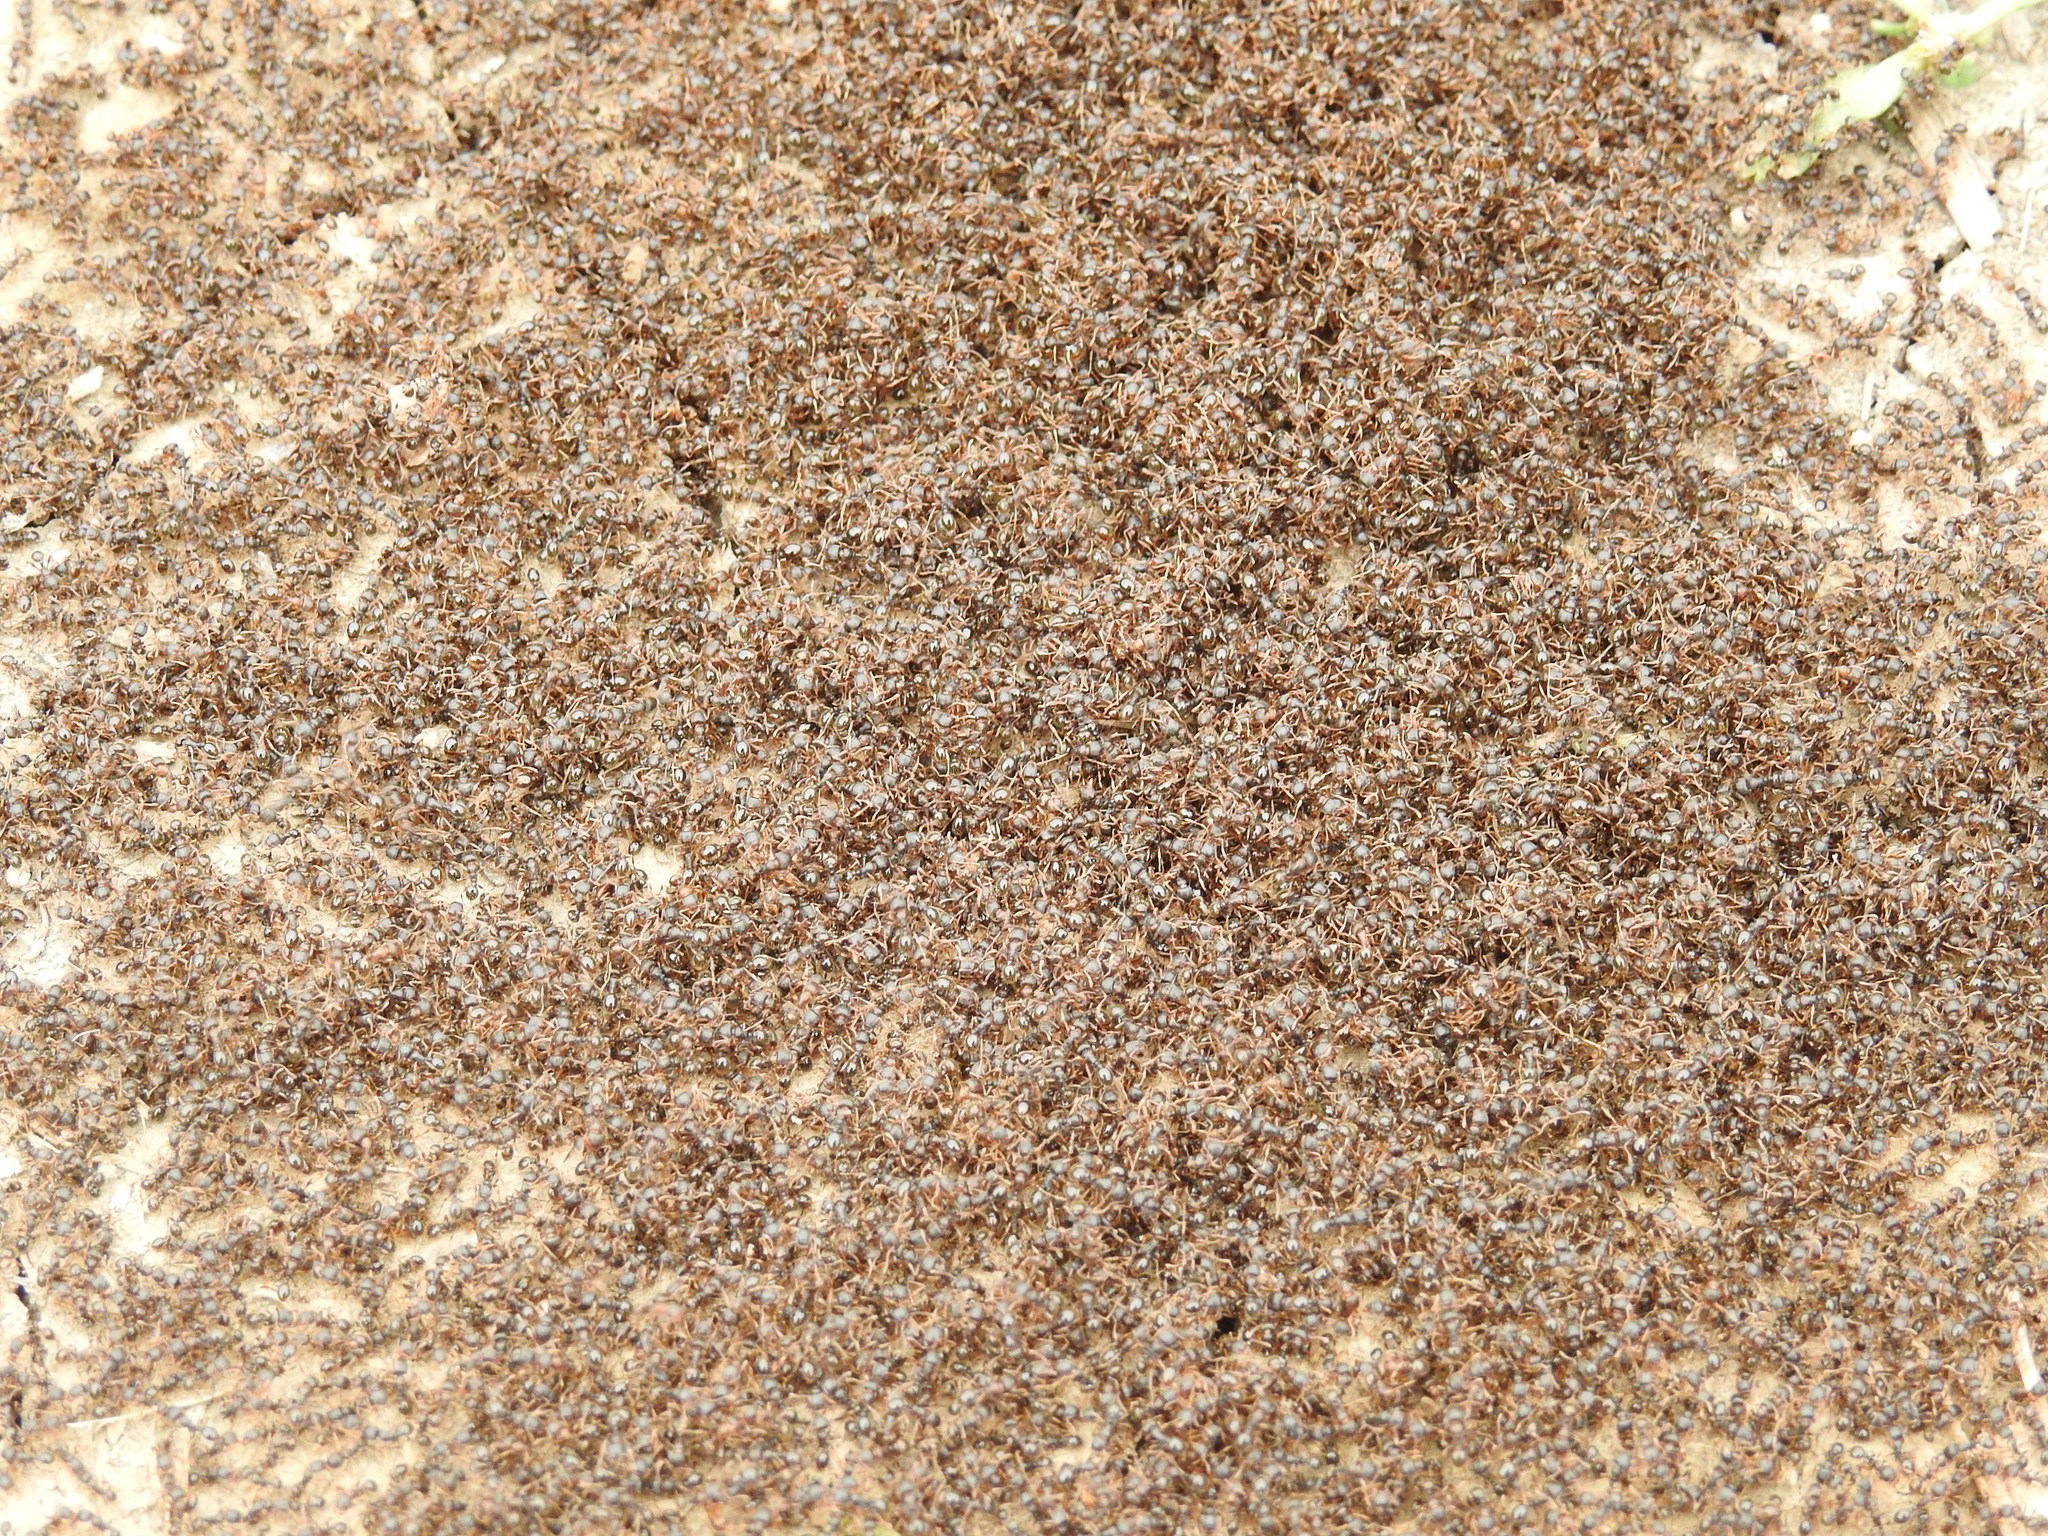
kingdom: Animalia
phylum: Arthropoda
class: Insecta
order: Hymenoptera
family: Formicidae
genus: Tetramorium
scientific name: Tetramorium immigrans
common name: Pavement ant
